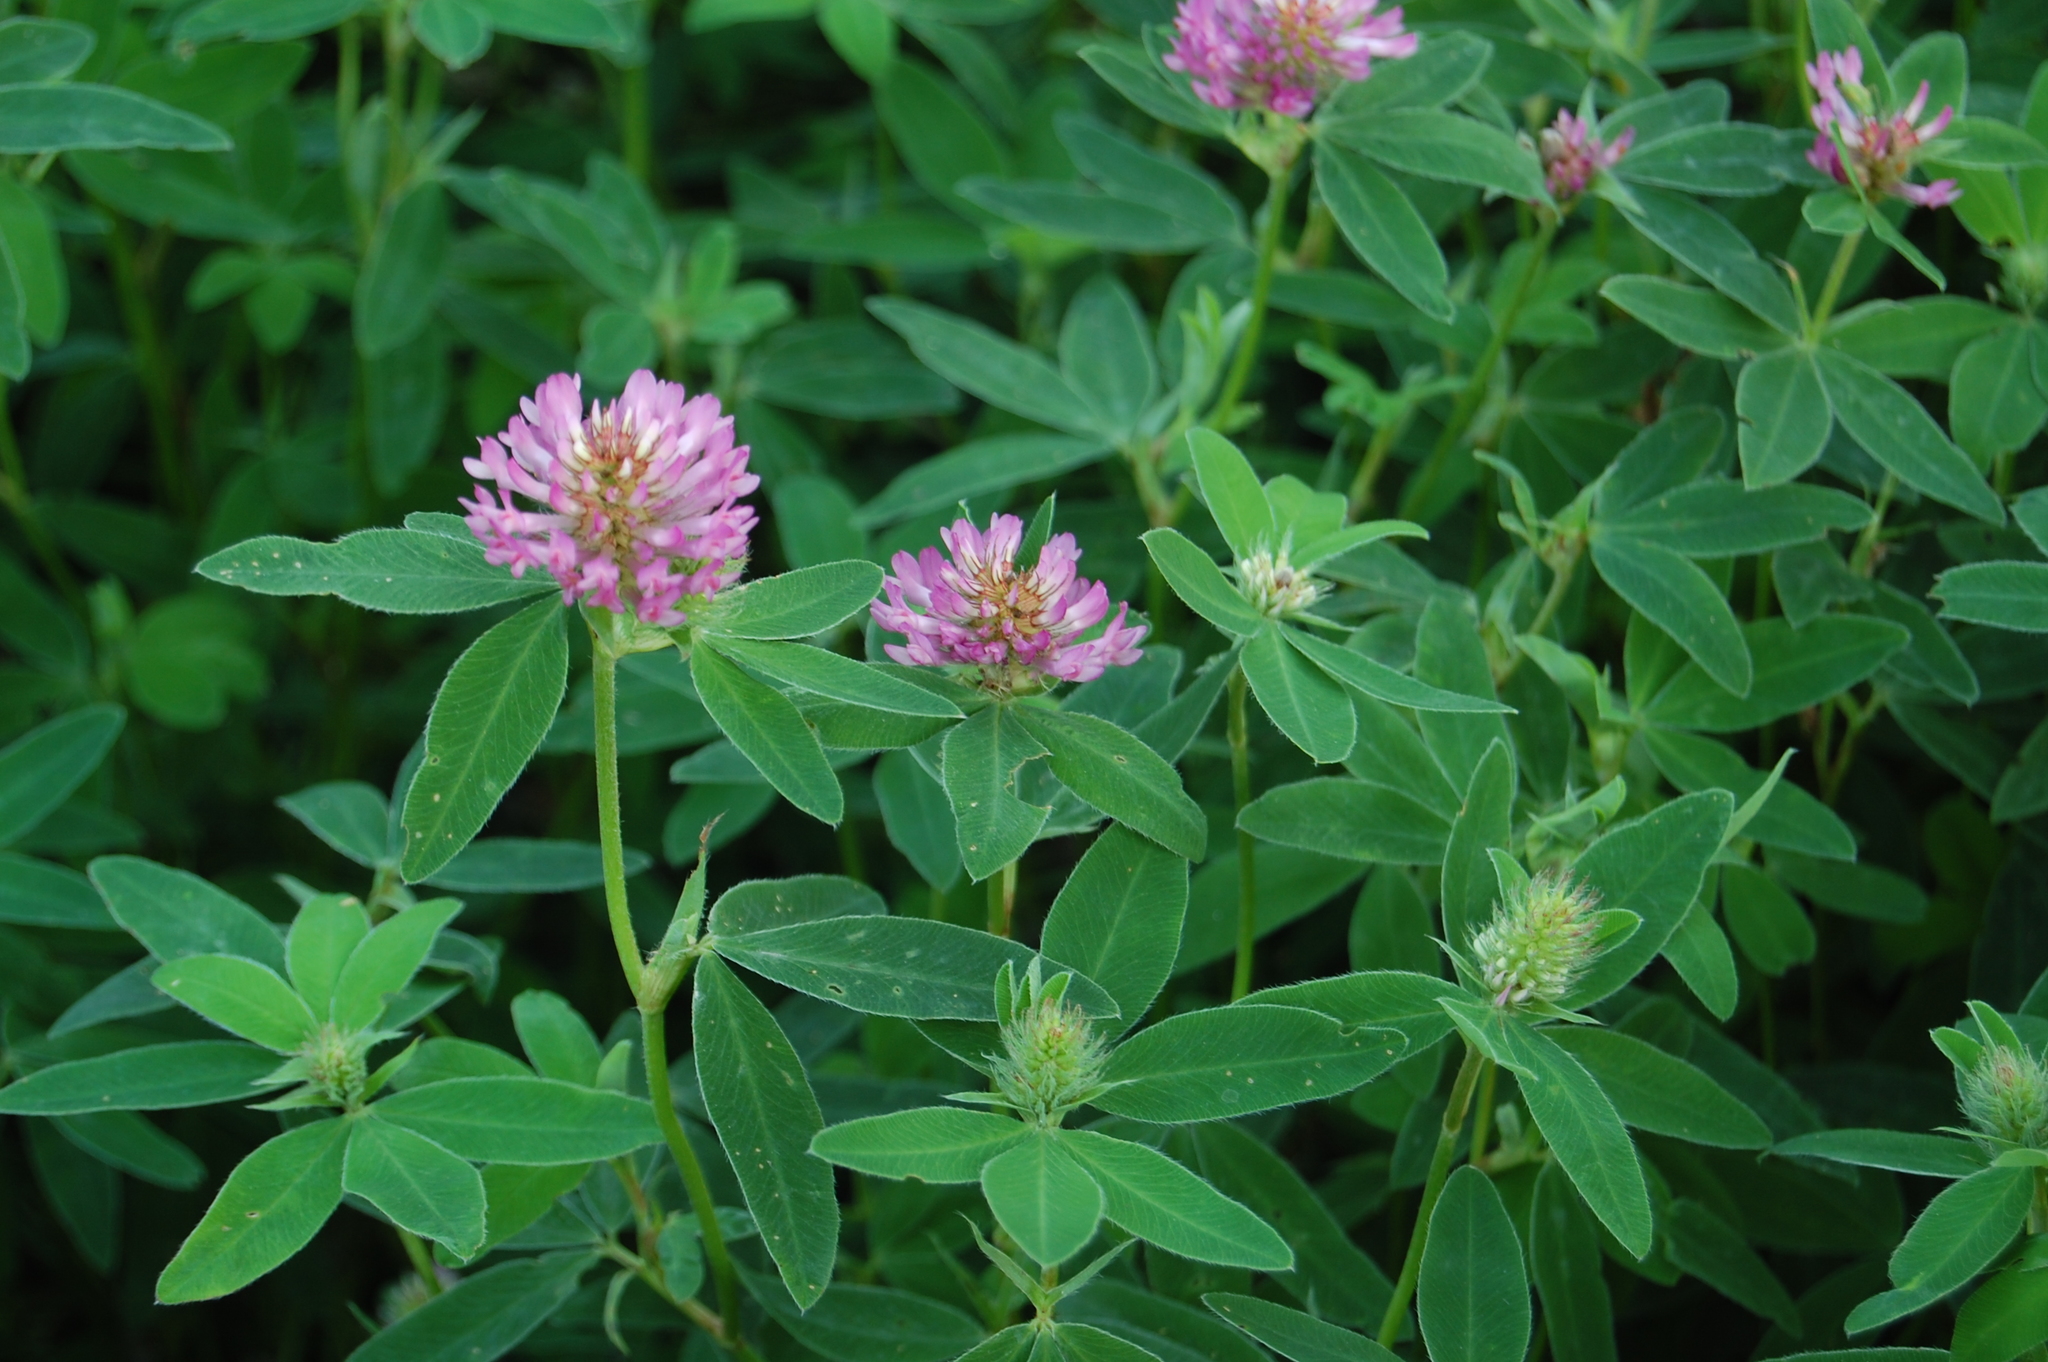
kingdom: Plantae
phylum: Tracheophyta
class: Magnoliopsida
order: Fabales
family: Fabaceae
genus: Trifolium
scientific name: Trifolium medium
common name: Zigzag clover
